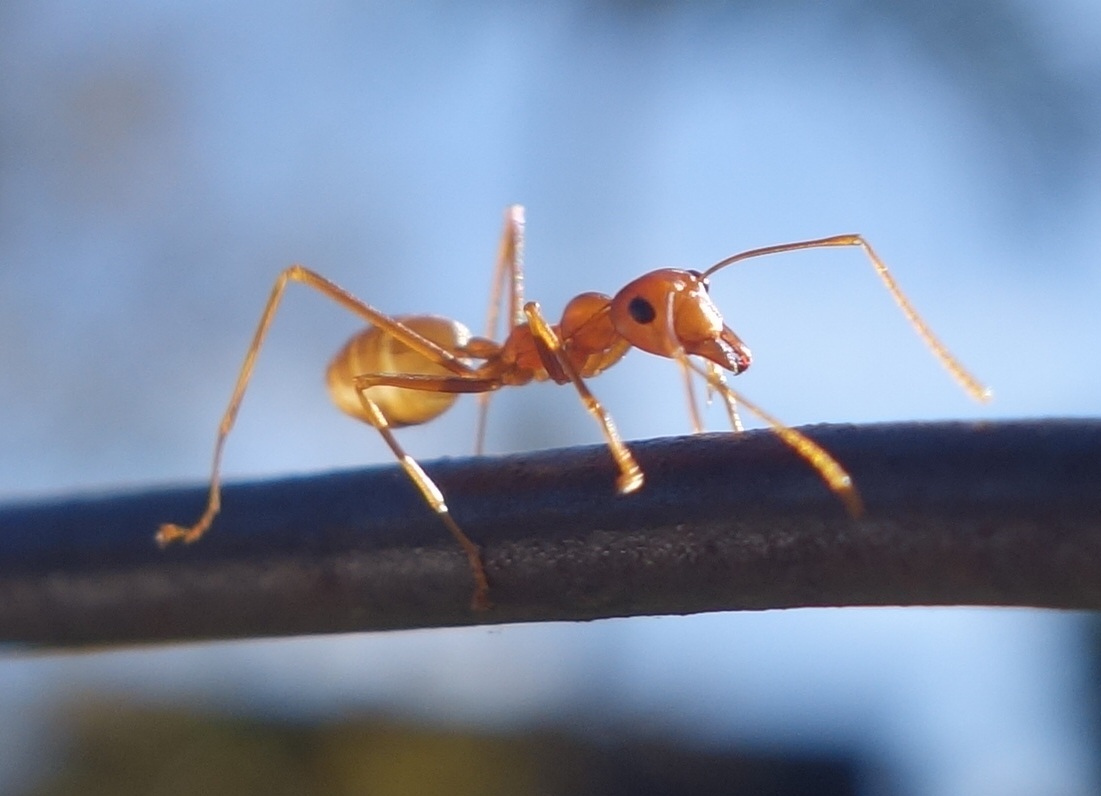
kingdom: Animalia
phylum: Arthropoda
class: Insecta
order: Hymenoptera
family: Formicidae
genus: Oecophylla
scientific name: Oecophylla smaragdina
